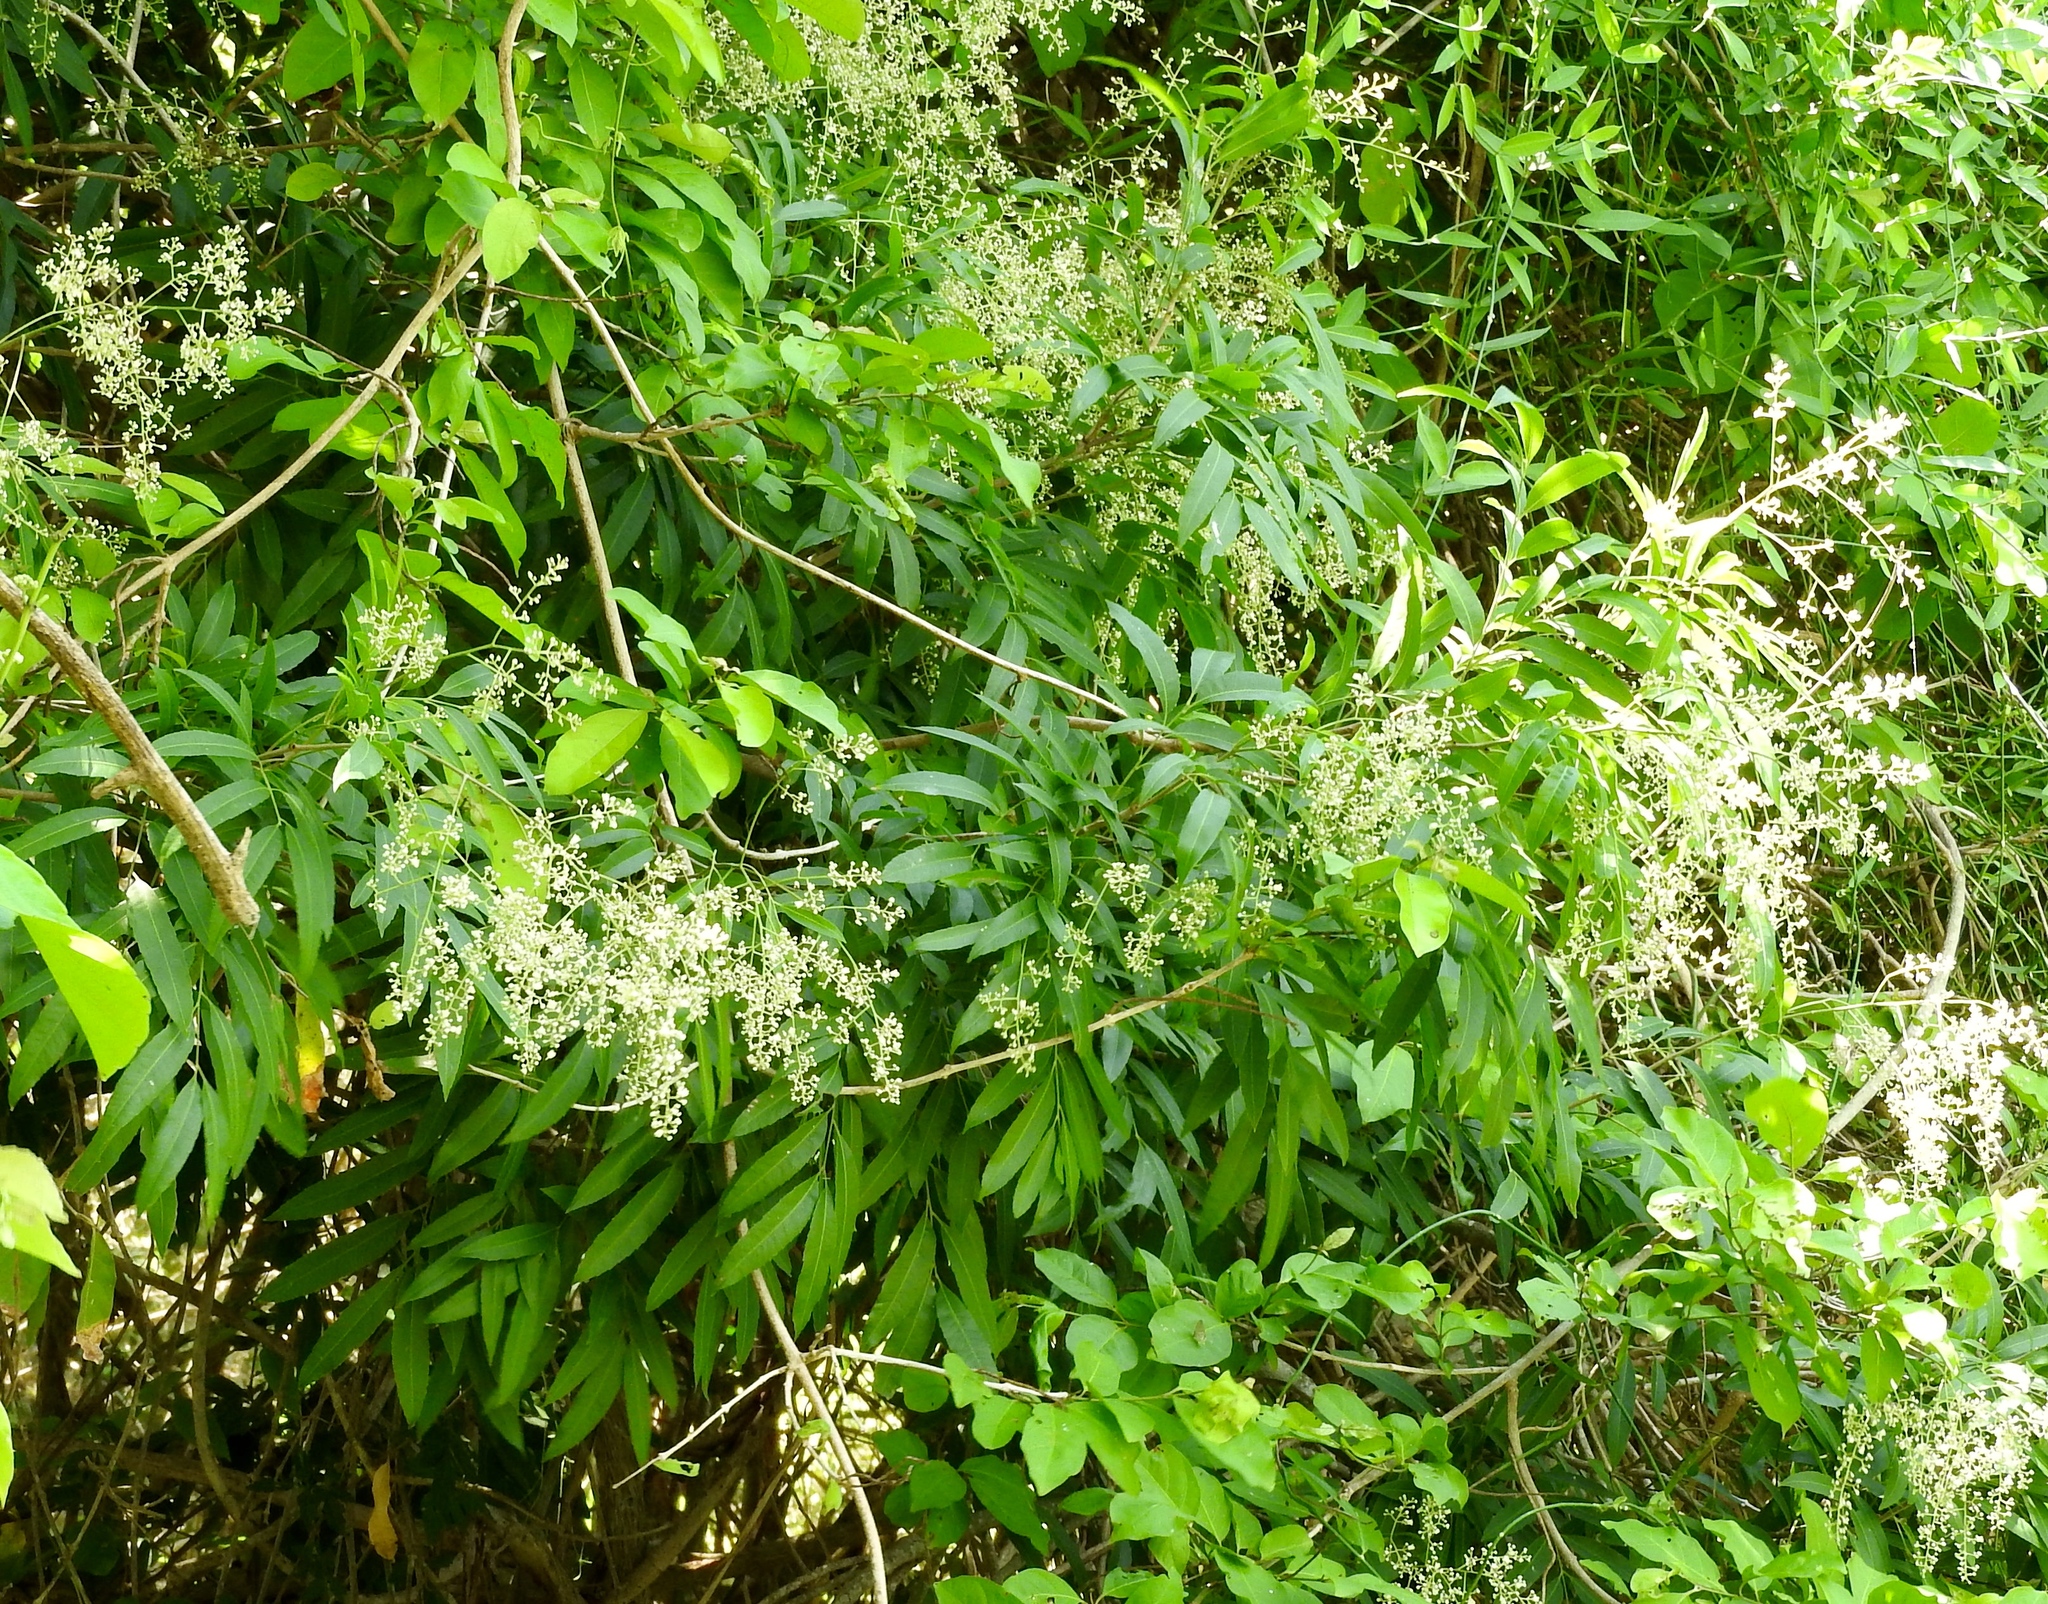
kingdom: Plantae
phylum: Tracheophyta
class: Magnoliopsida
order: Sapindales
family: Sapindaceae
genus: Thouinidium
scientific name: Thouinidium decandrum
